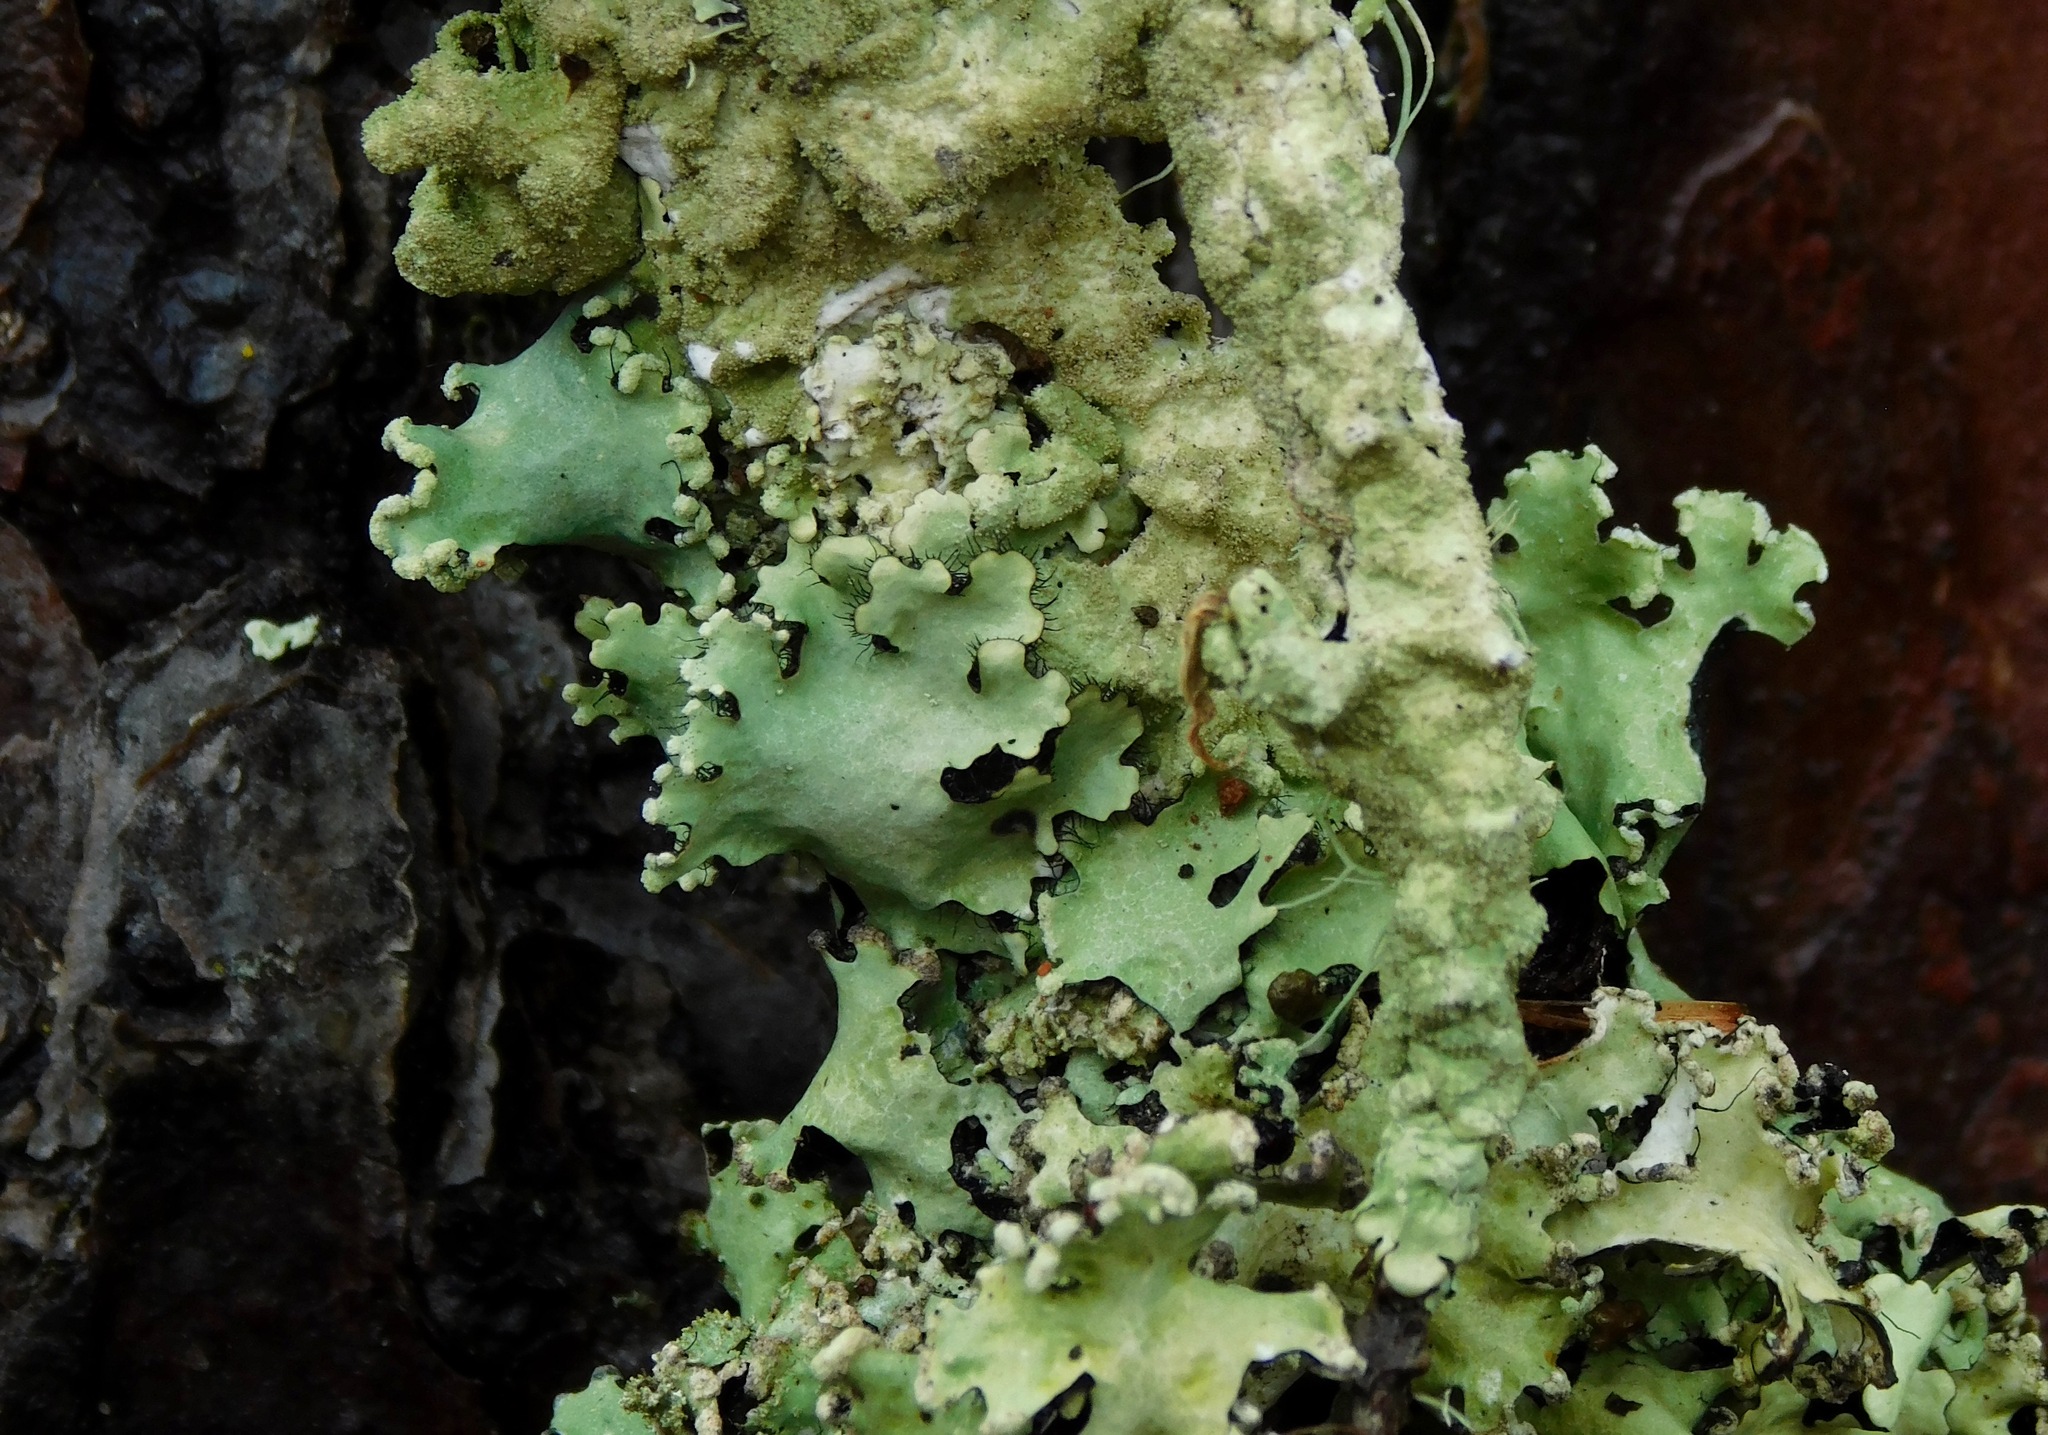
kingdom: Fungi
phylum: Ascomycota
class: Lecanoromycetes
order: Lecanorales
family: Parmeliaceae
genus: Hypotrachyna
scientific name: Hypotrachyna minarum
